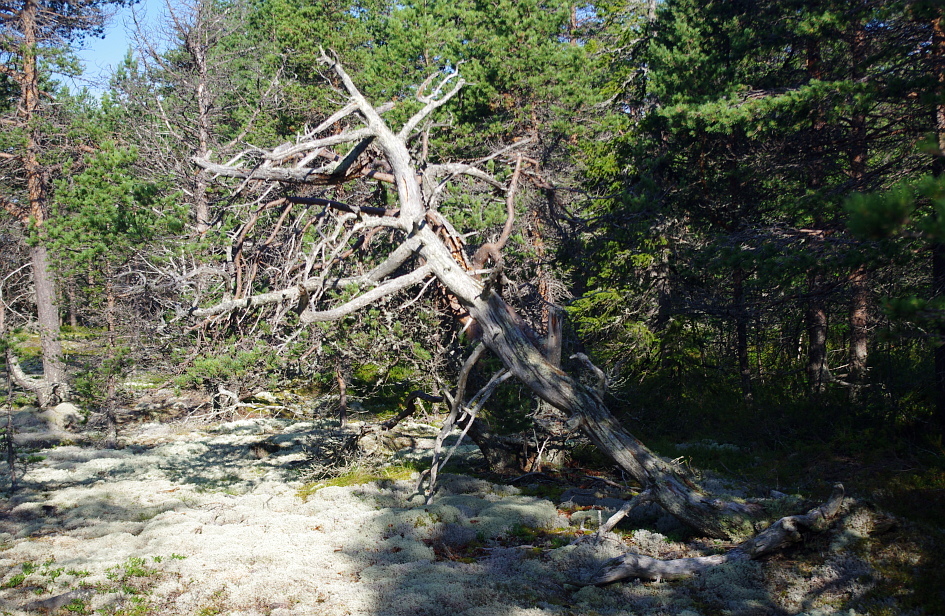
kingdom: Plantae
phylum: Tracheophyta
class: Pinopsida
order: Pinales
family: Pinaceae
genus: Pinus
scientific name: Pinus sylvestris
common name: Scots pine
